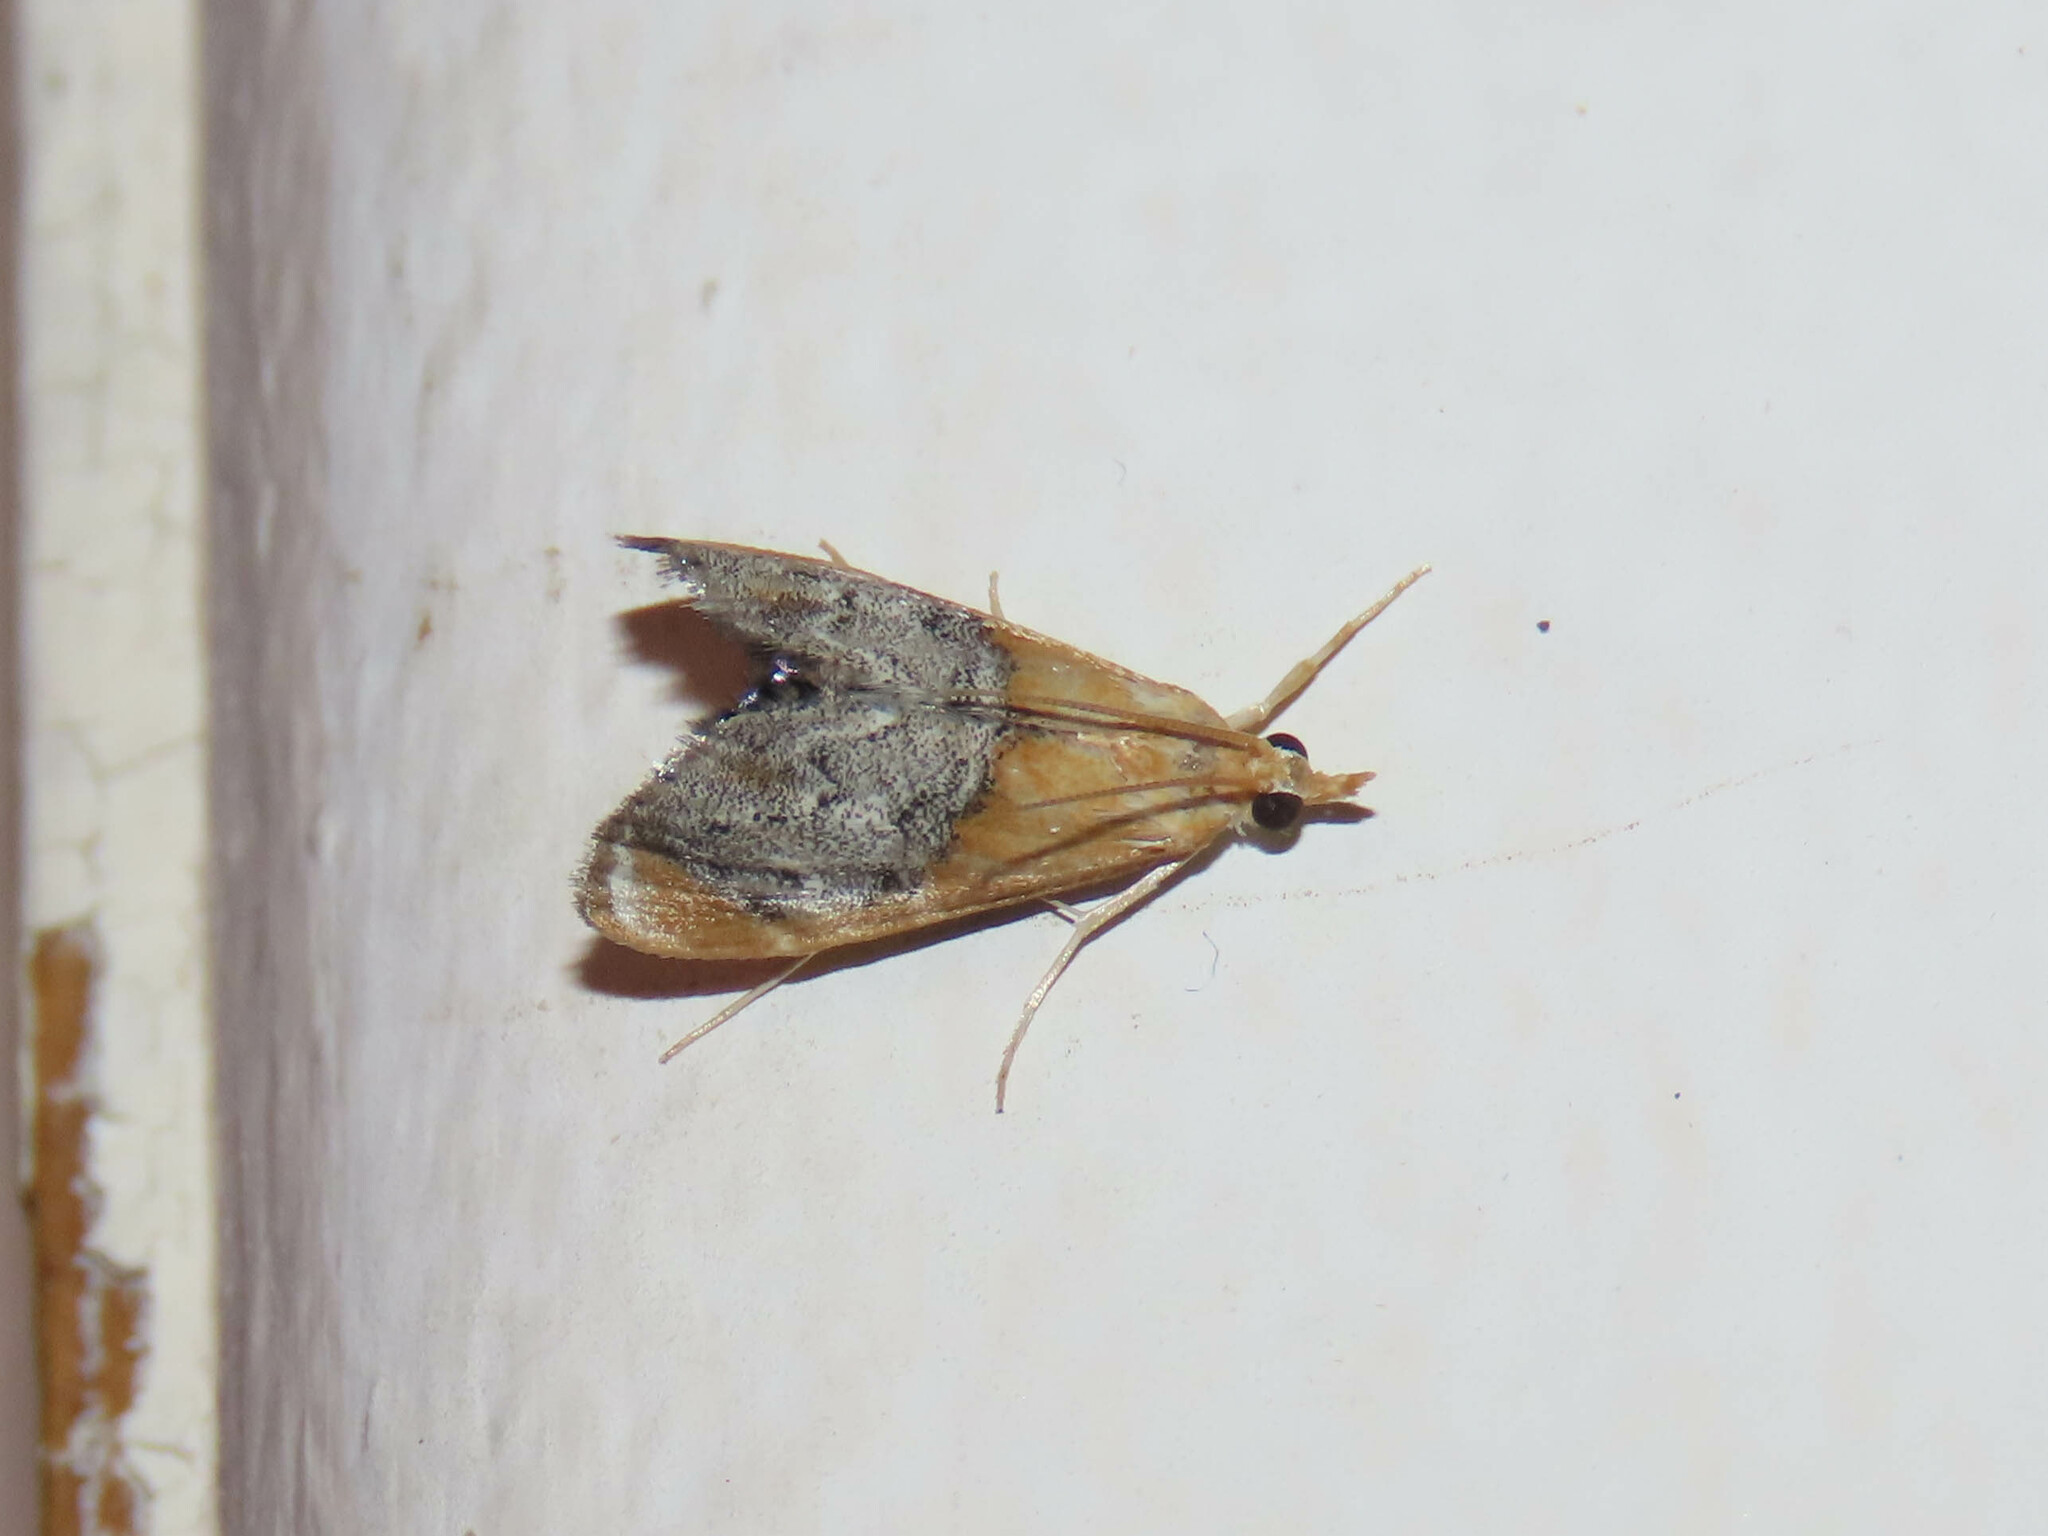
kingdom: Animalia
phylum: Arthropoda
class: Insecta
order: Lepidoptera
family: Crambidae
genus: Chalcoela
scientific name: Chalcoela iphitalis
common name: Sooty-winged chalcoela moth
